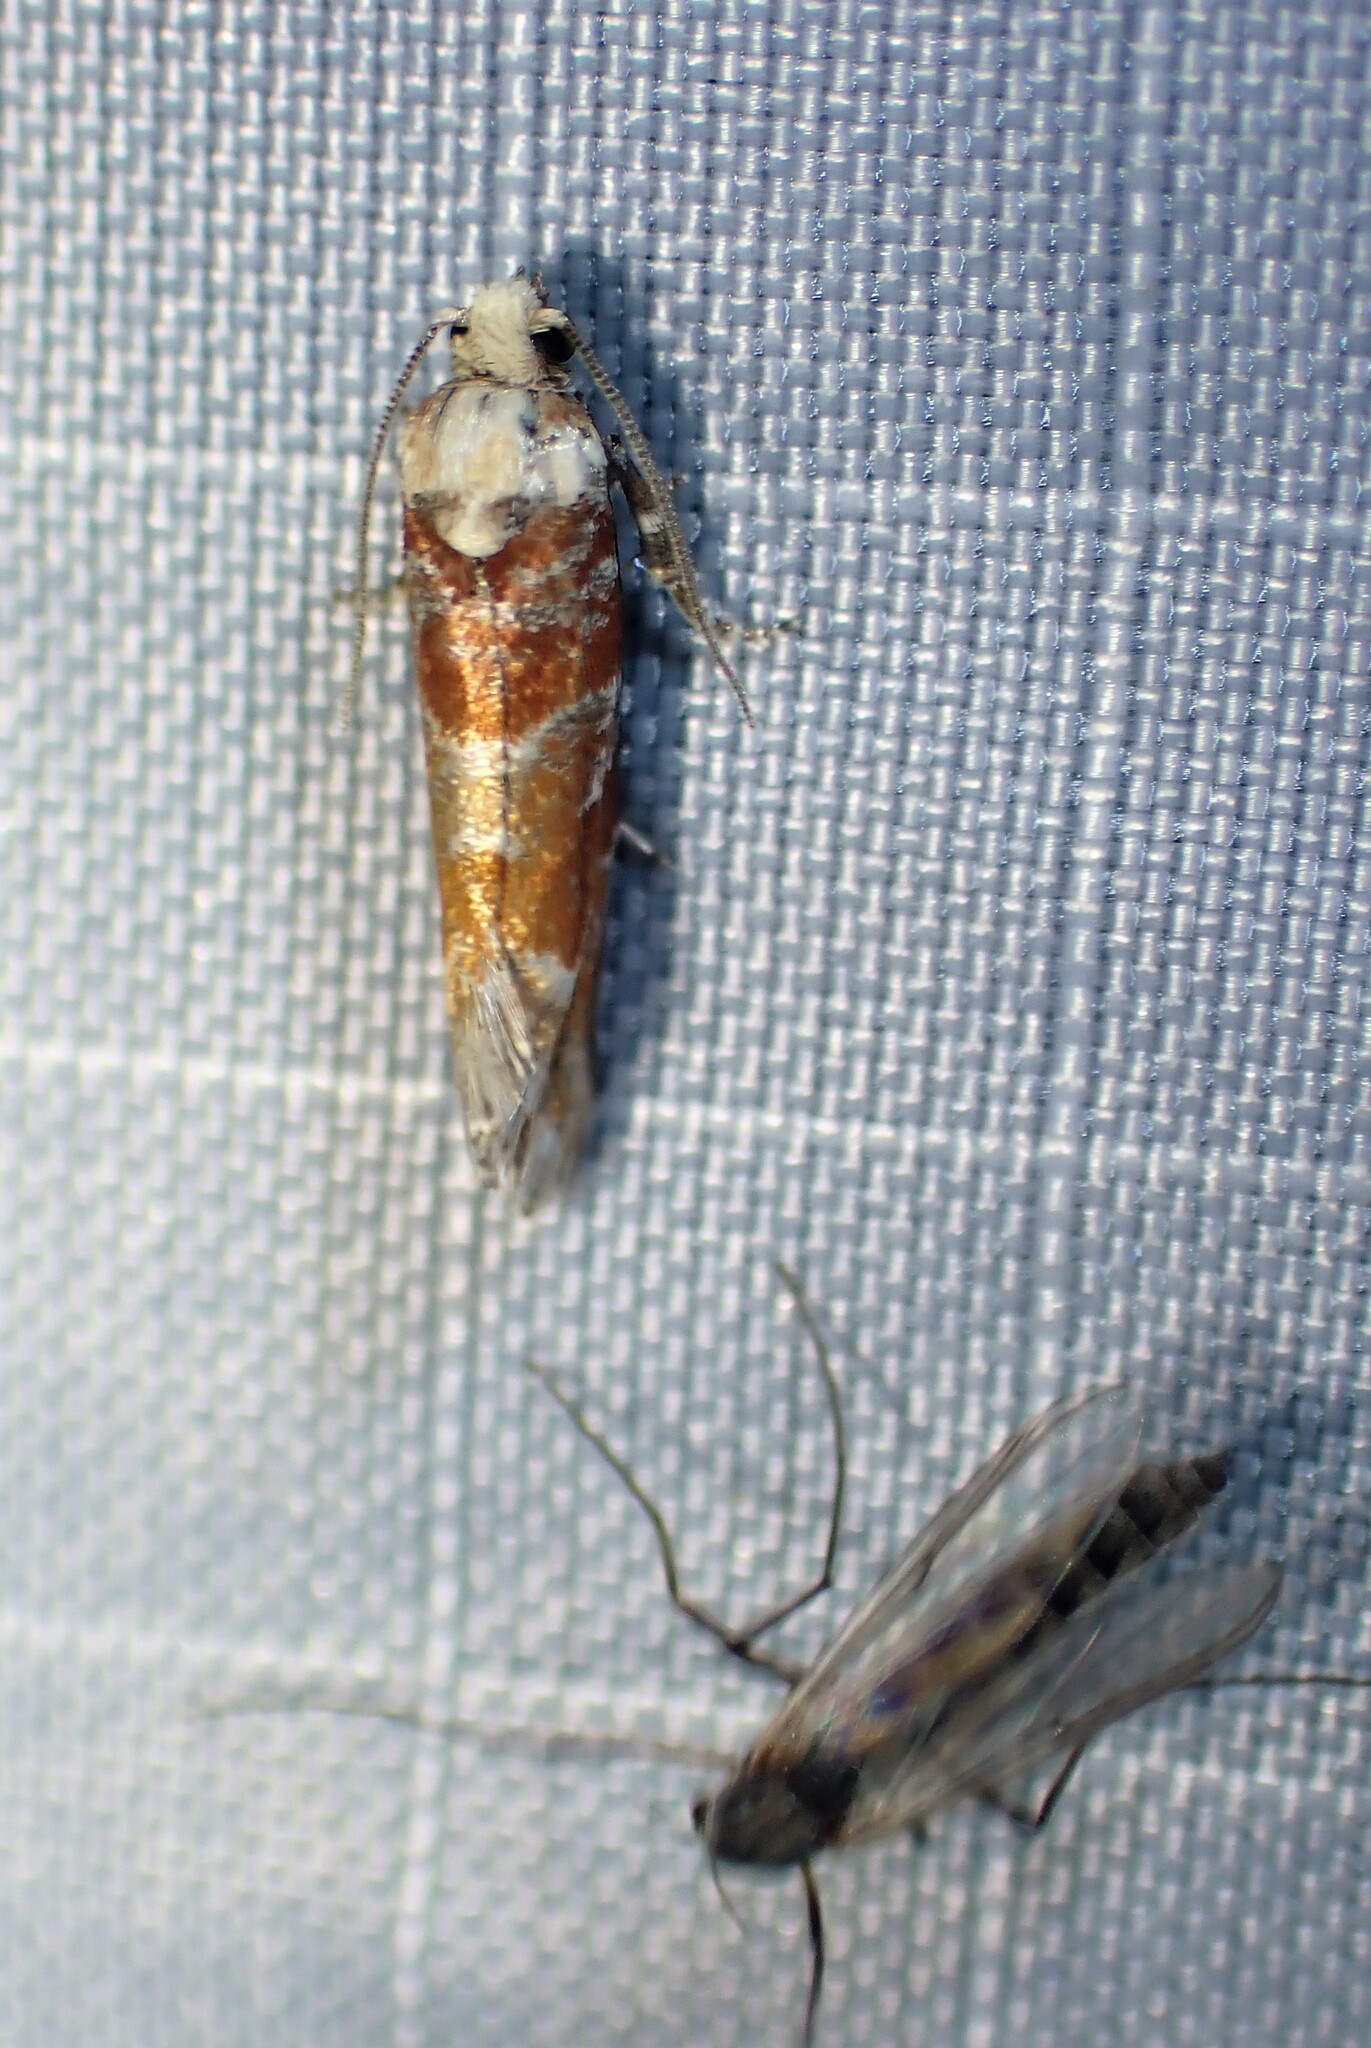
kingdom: Animalia
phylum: Arthropoda
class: Insecta
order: Lepidoptera
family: Tortricidae
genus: Eucopina
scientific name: Eucopina gloriola
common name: White-pine shoot borer moth
